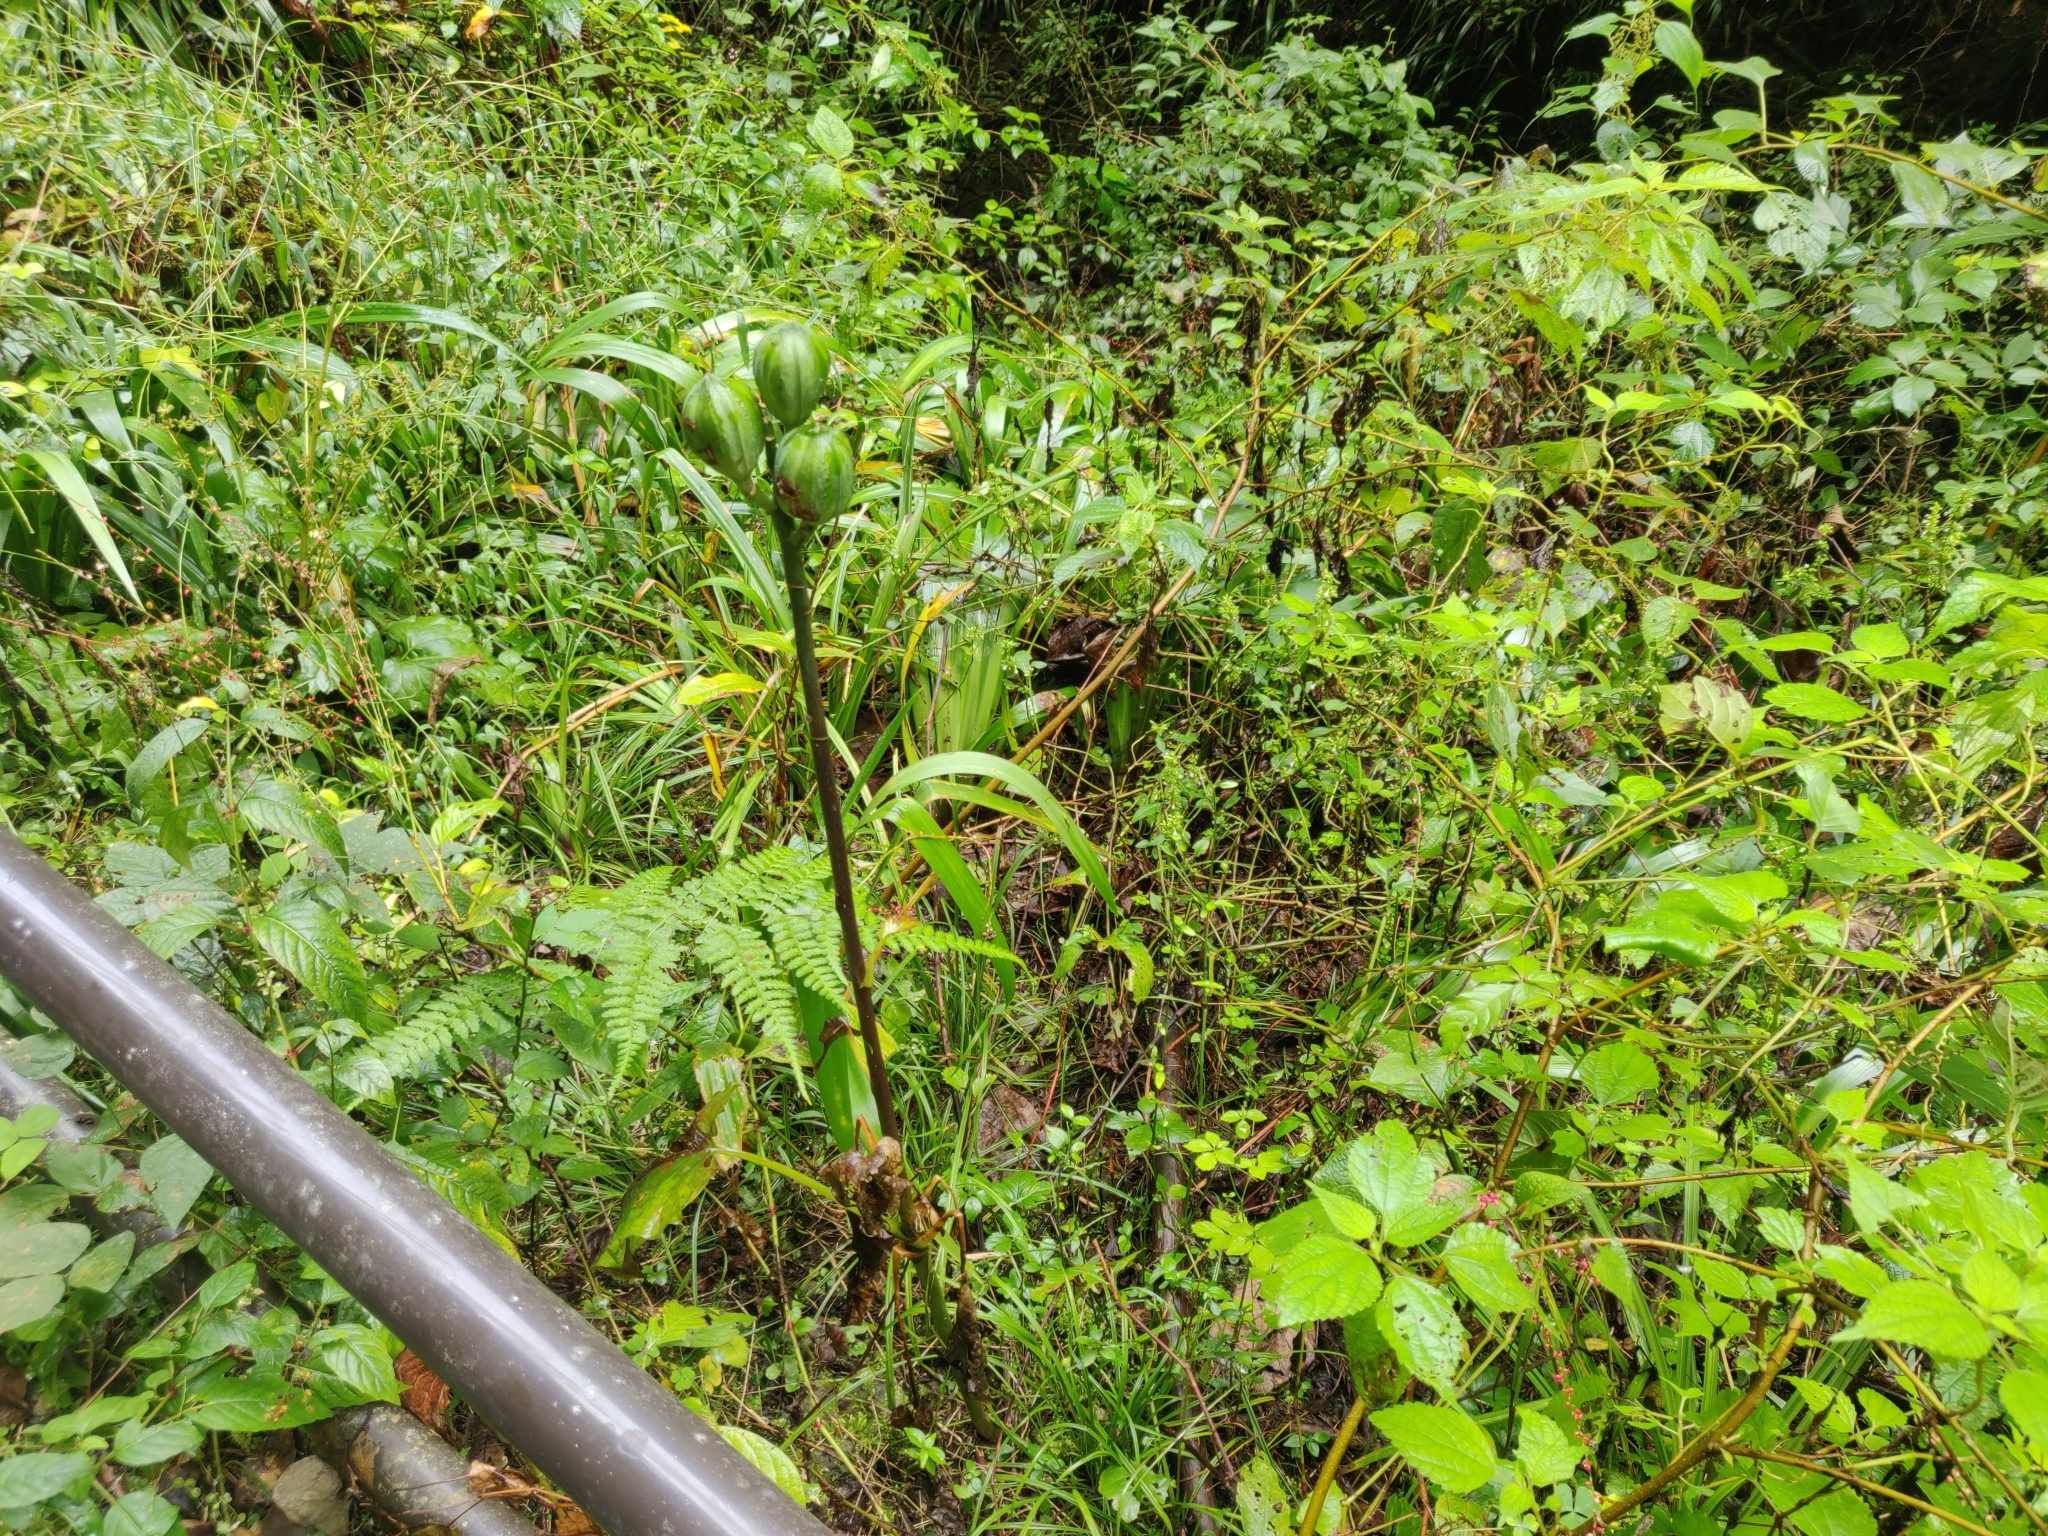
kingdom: Plantae
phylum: Tracheophyta
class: Liliopsida
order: Liliales
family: Liliaceae
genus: Cardiocrinum
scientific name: Cardiocrinum cordatum
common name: Lily
